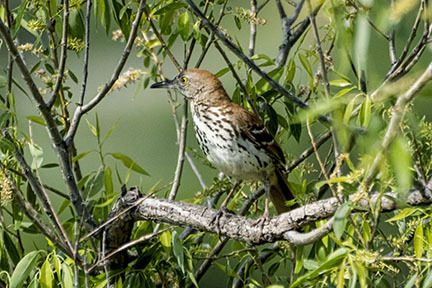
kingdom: Animalia
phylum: Chordata
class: Aves
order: Passeriformes
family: Mimidae
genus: Toxostoma
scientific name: Toxostoma rufum
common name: Brown thrasher
